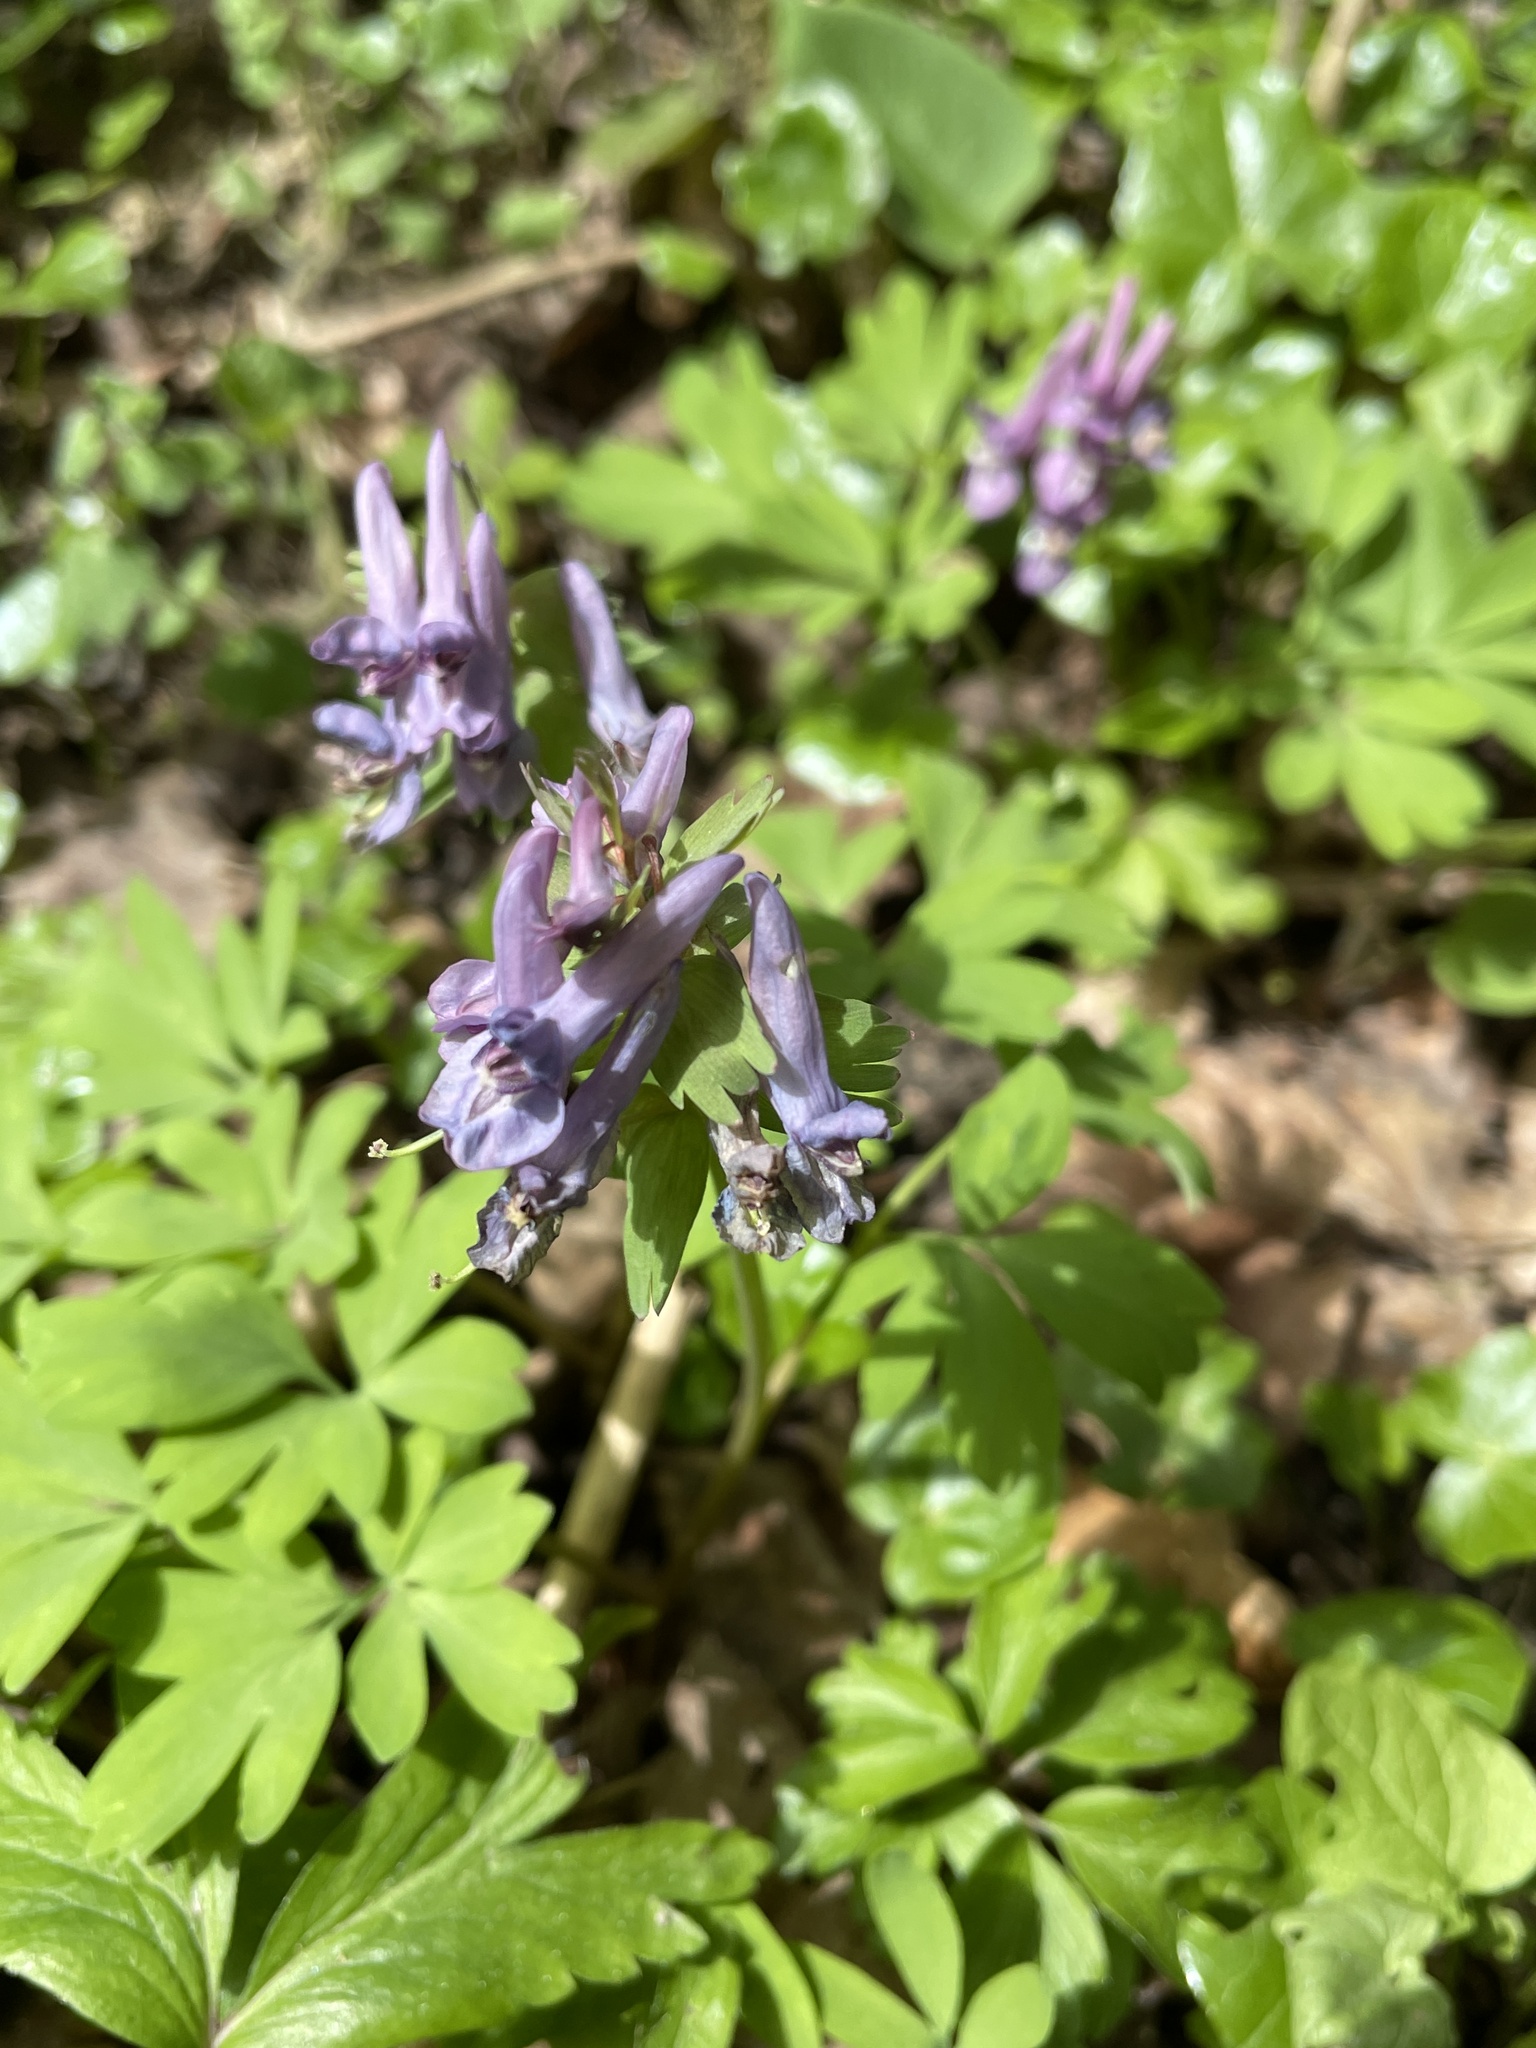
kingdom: Plantae
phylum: Tracheophyta
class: Magnoliopsida
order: Ranunculales
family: Papaveraceae
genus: Corydalis
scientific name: Corydalis solida
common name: Bird-in-a-bush
